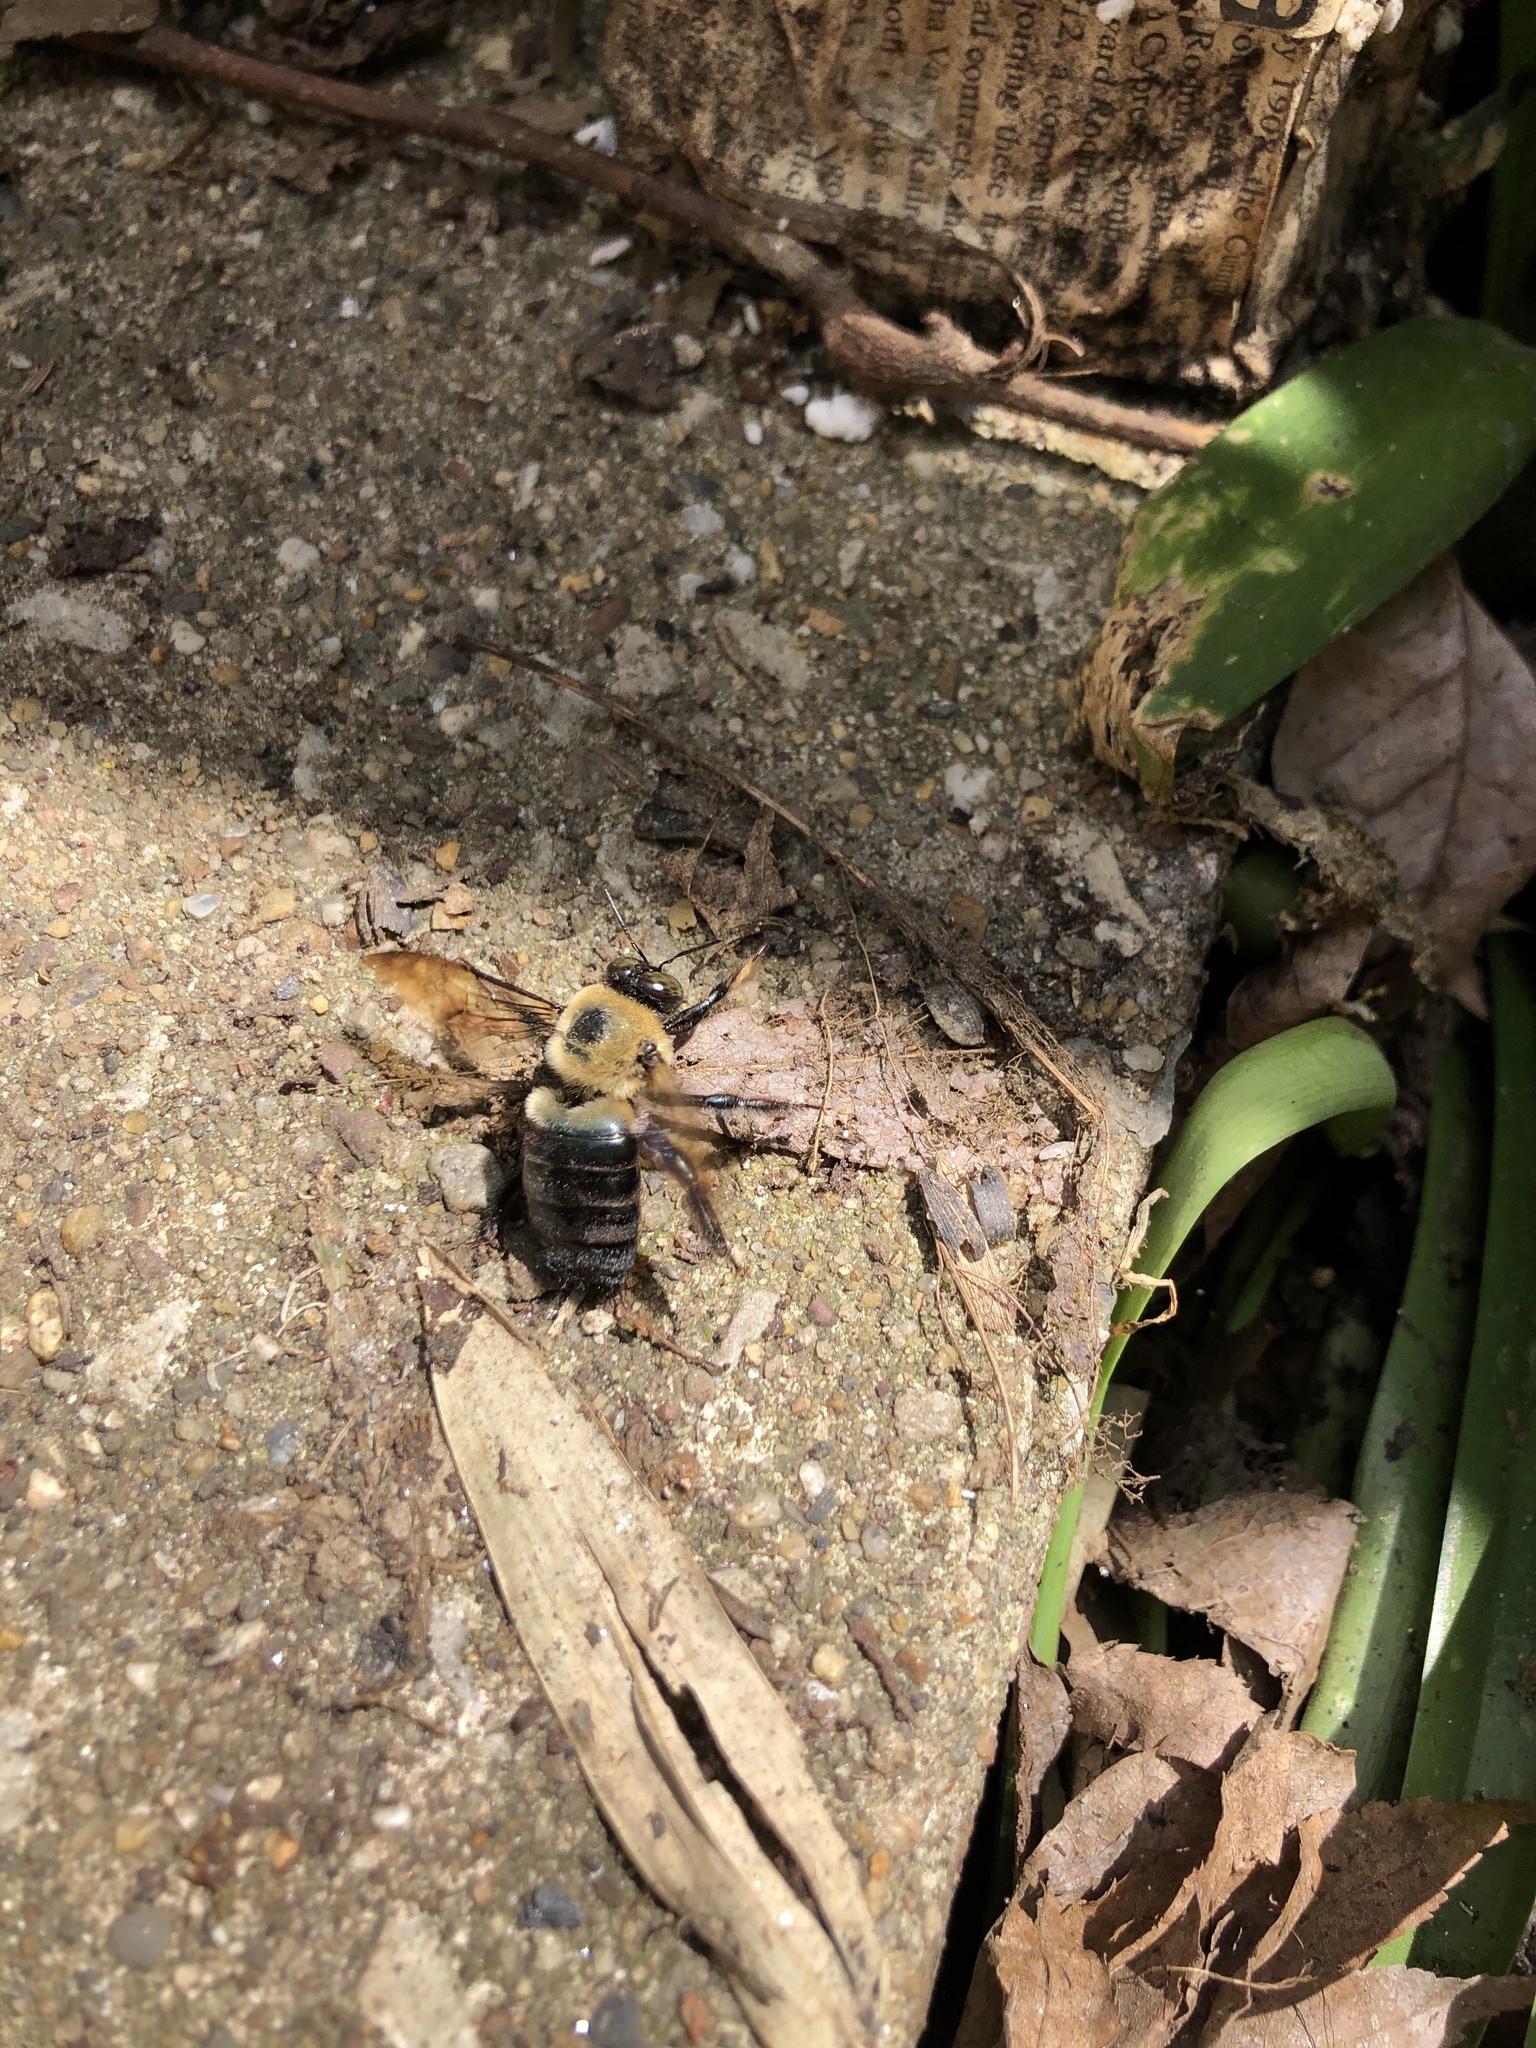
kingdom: Animalia
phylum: Arthropoda
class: Insecta
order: Hymenoptera
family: Apidae
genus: Xylocopa
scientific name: Xylocopa virginica
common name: Carpenter bee
